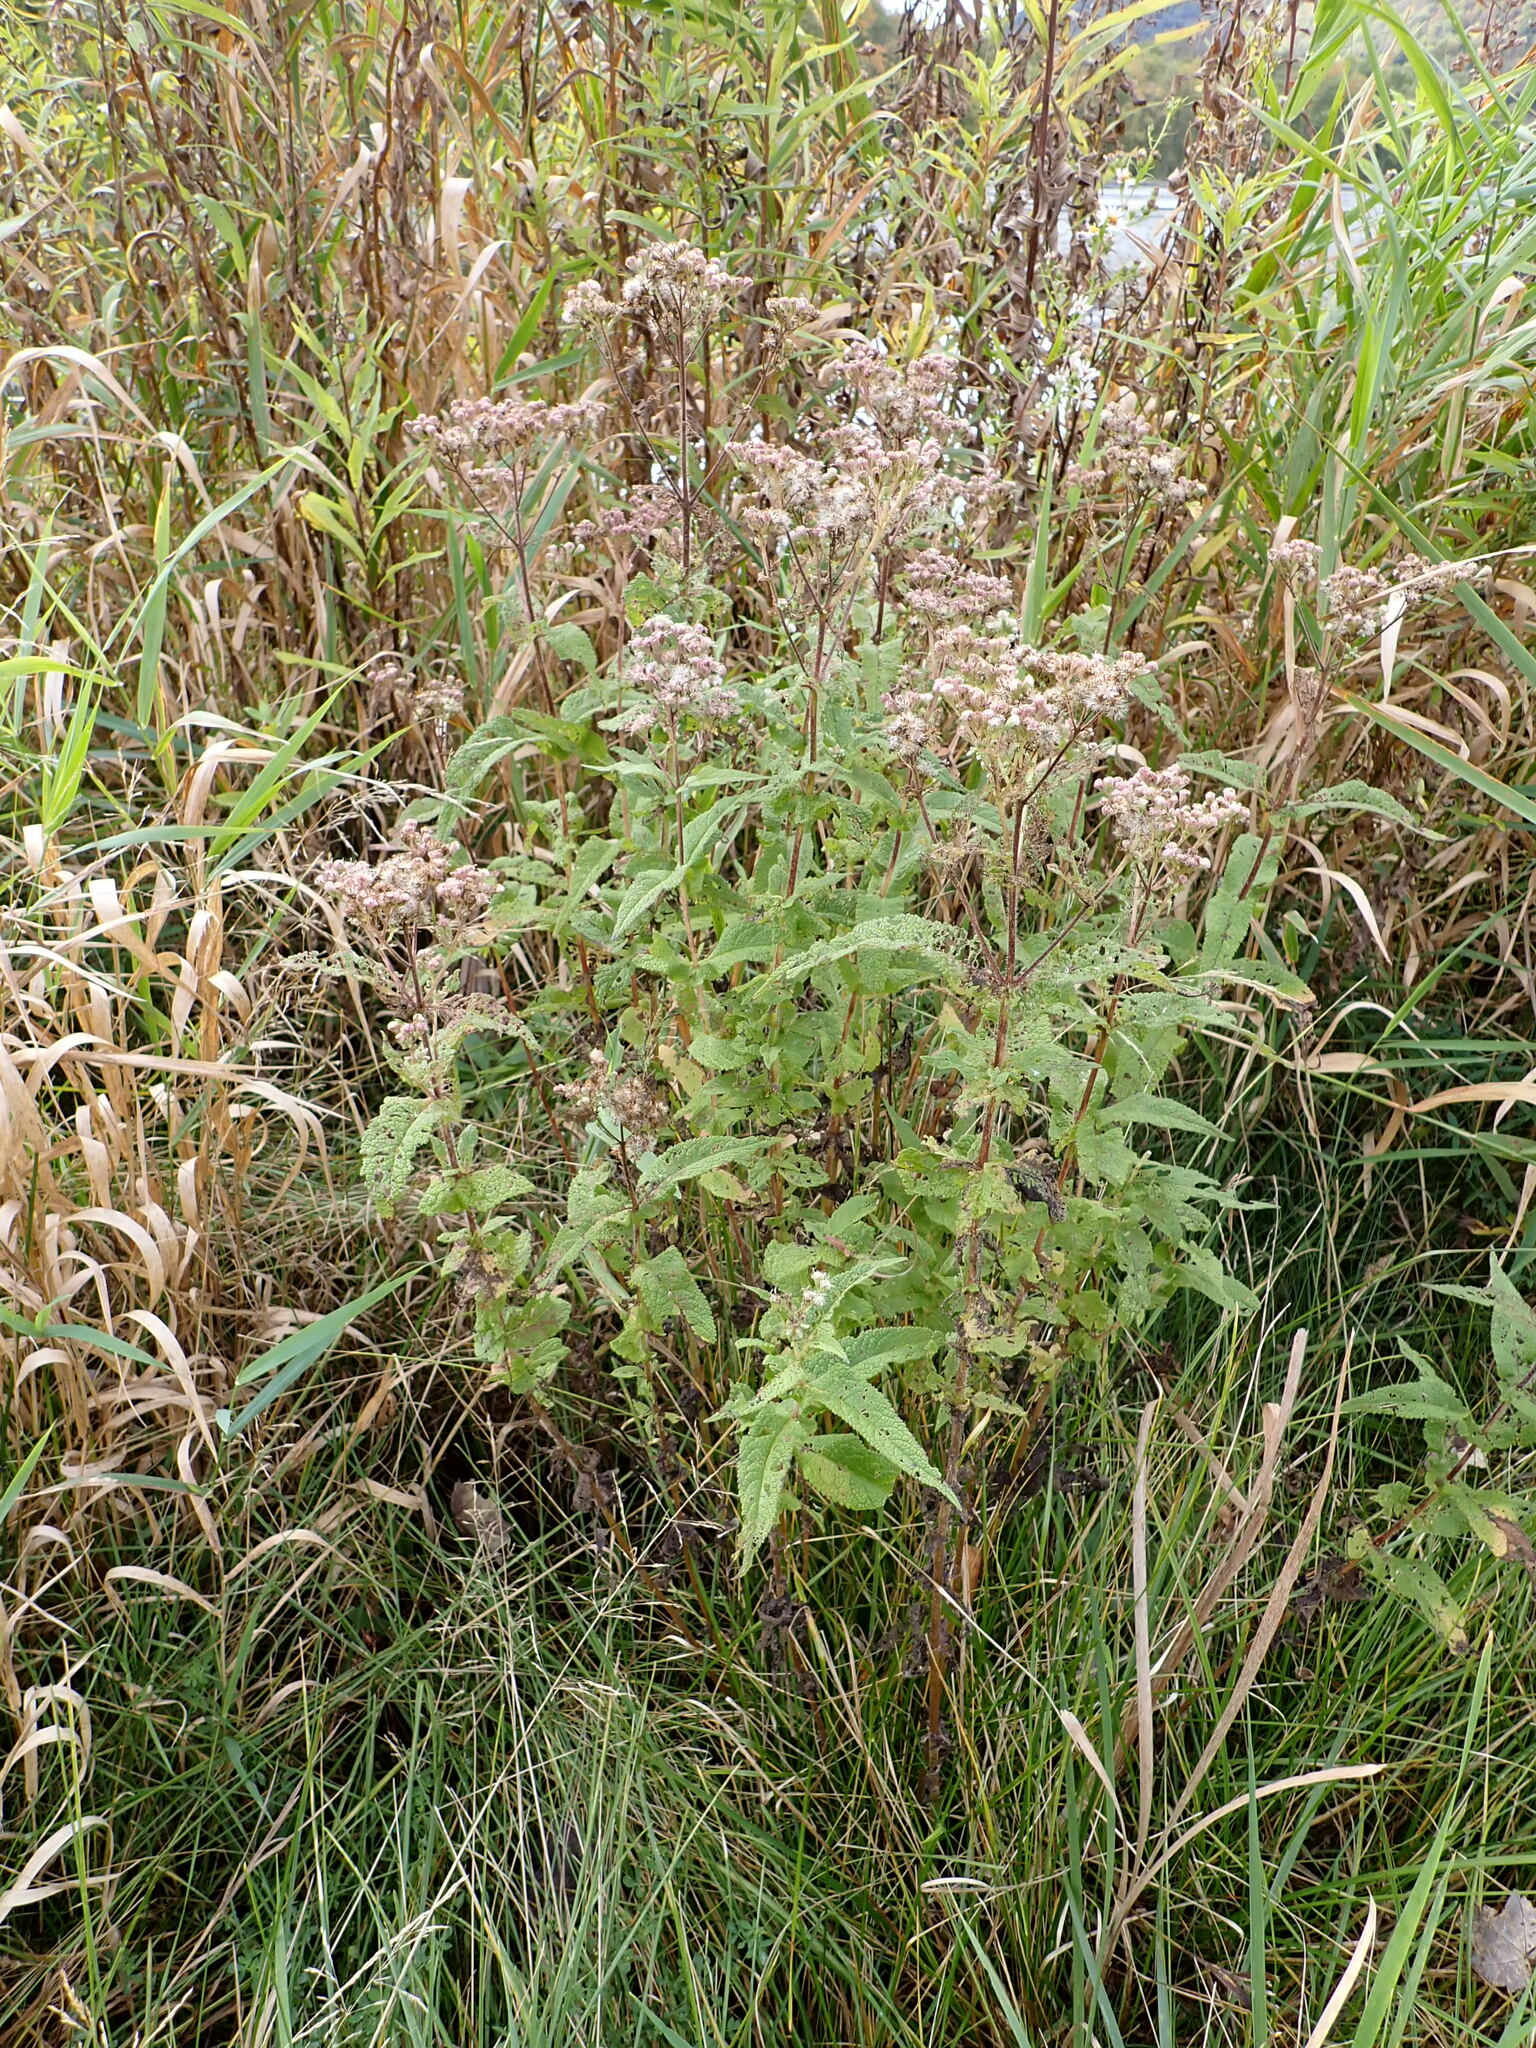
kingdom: Plantae
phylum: Tracheophyta
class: Magnoliopsida
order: Asterales
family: Asteraceae
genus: Eupatorium
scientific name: Eupatorium perfoliatum
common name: Boneset
